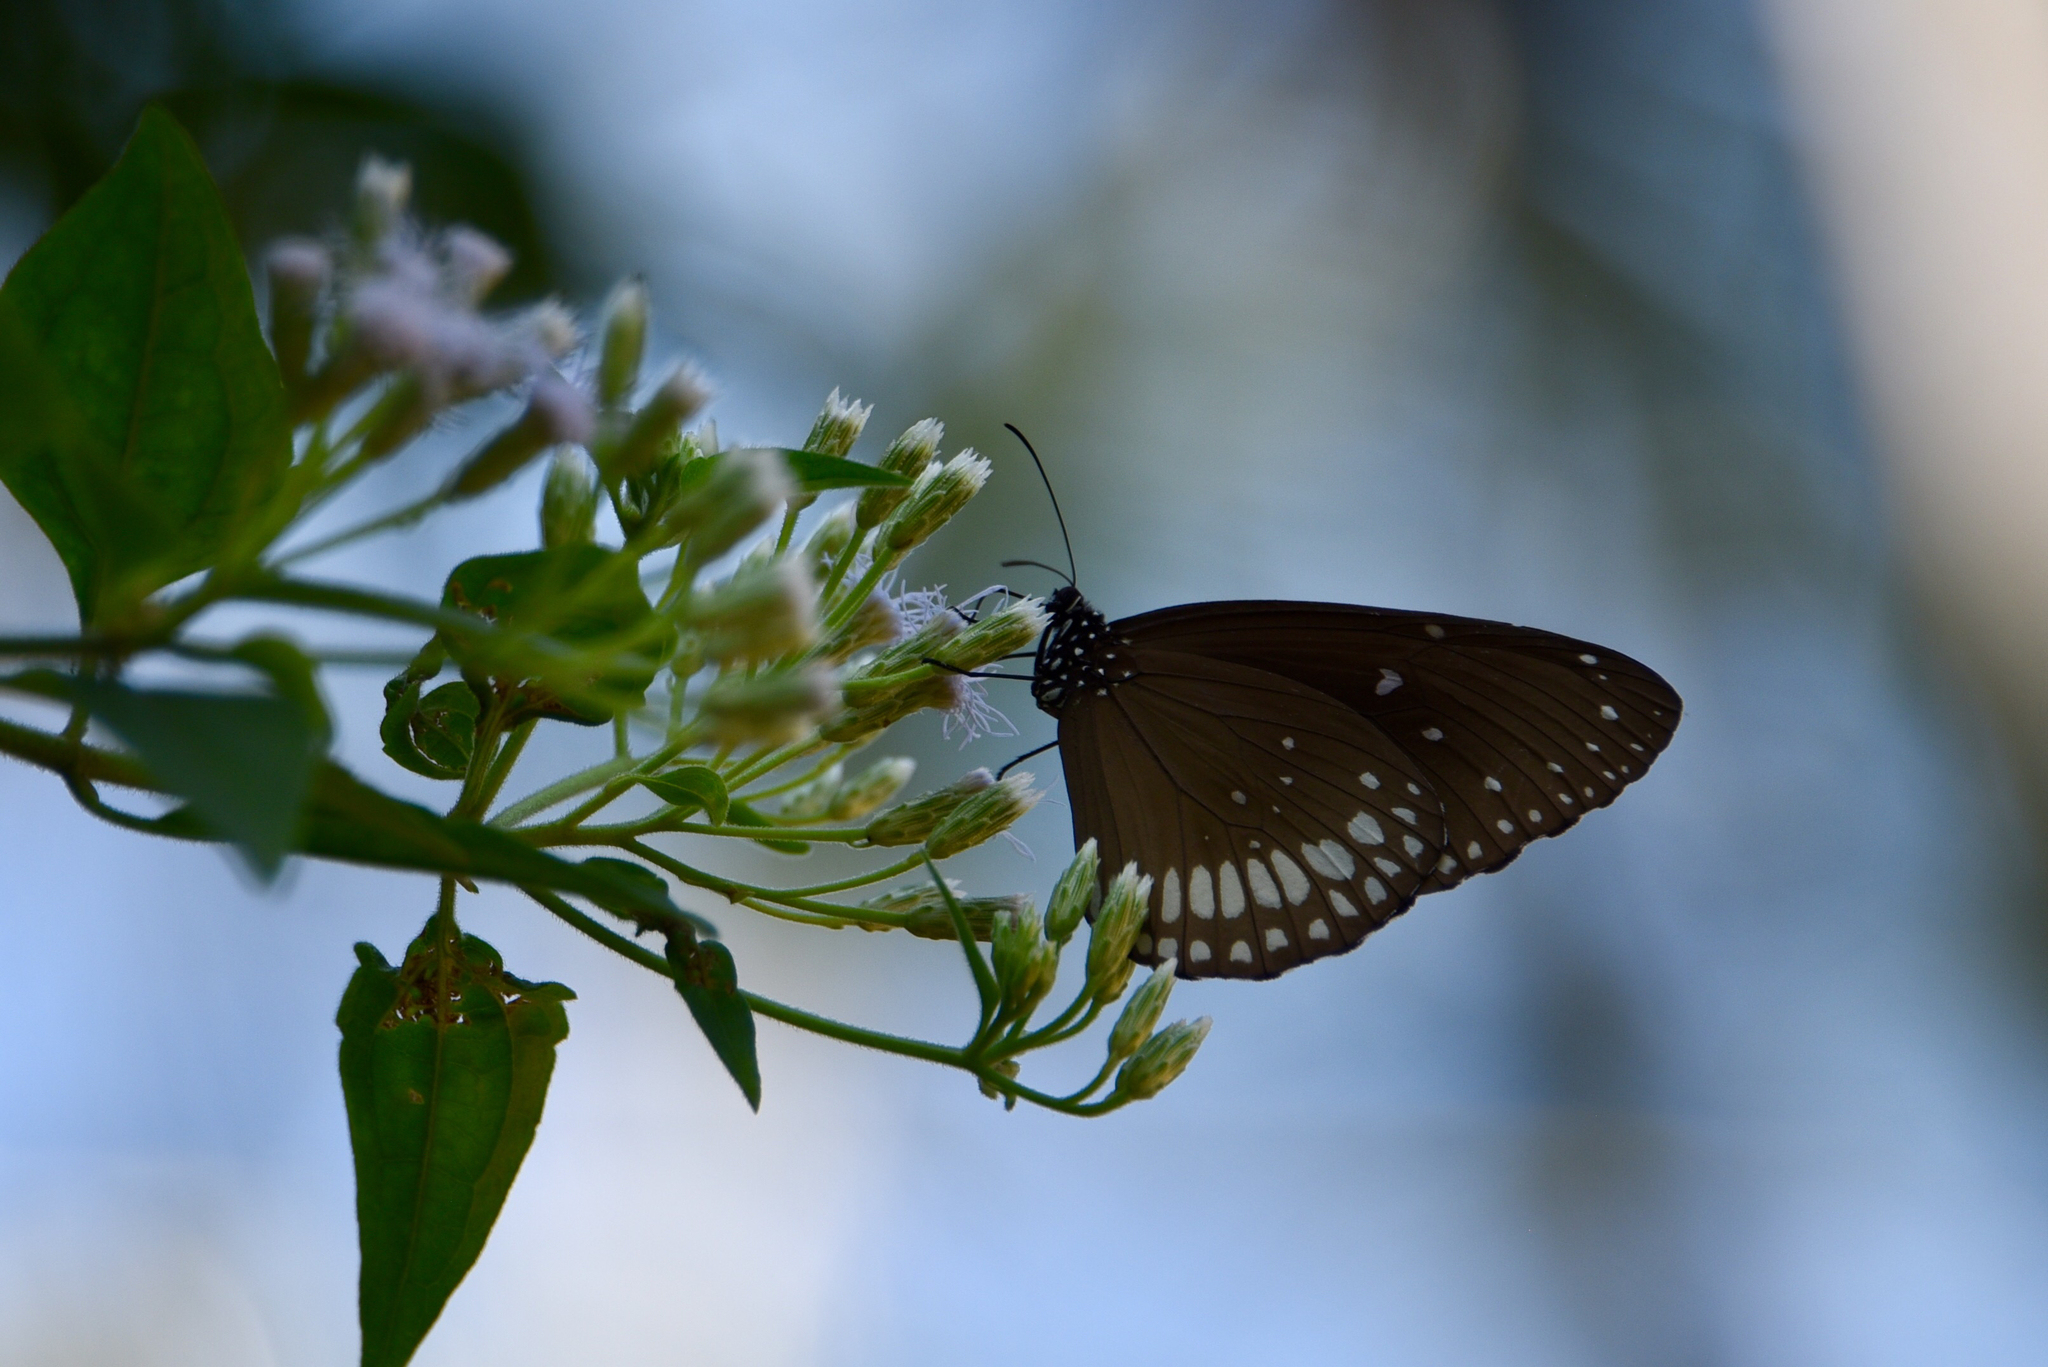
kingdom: Animalia
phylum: Arthropoda
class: Insecta
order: Lepidoptera
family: Nymphalidae
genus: Euploea
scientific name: Euploea core
